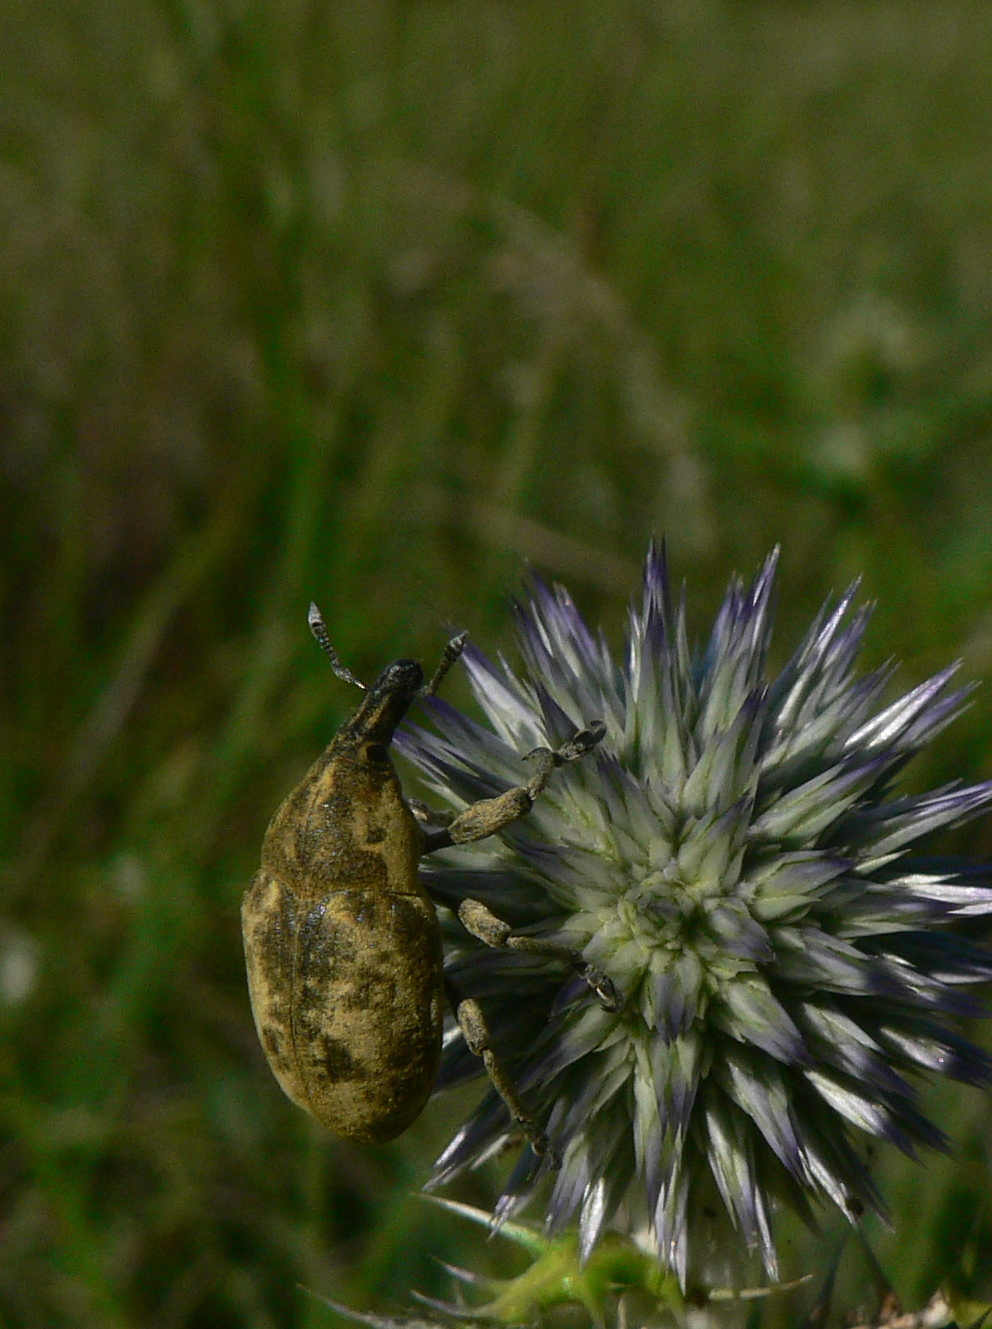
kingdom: Animalia
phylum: Arthropoda
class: Insecta
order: Coleoptera
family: Curculionidae
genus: Larinus
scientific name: Larinus vulpes
